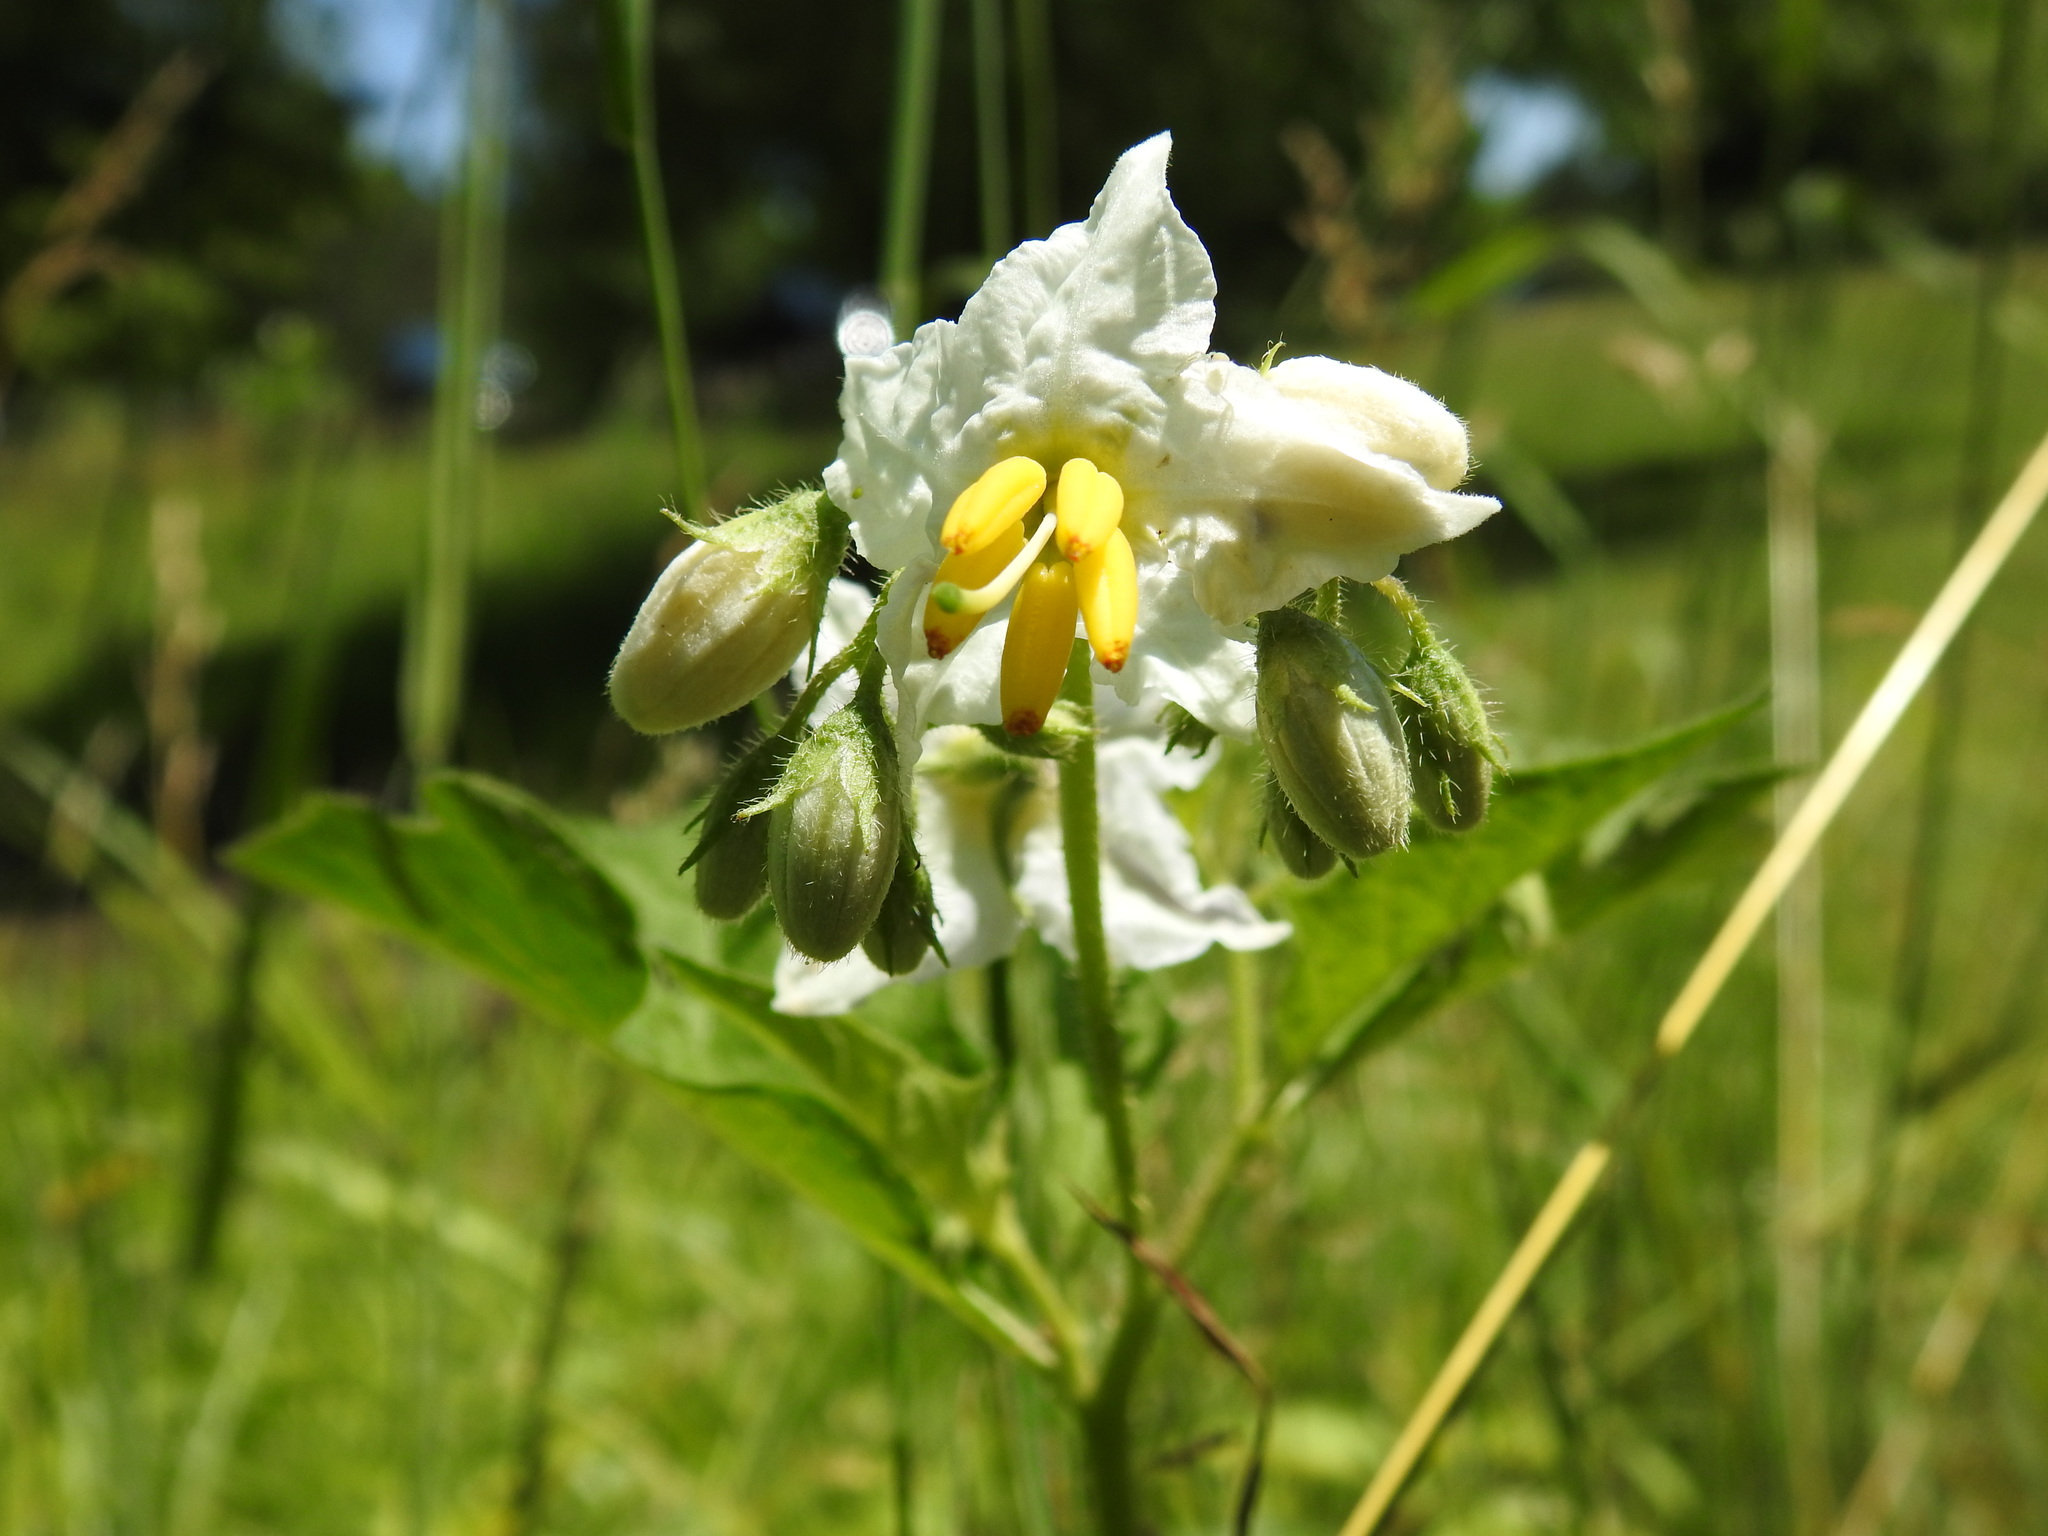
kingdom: Plantae
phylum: Tracheophyta
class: Magnoliopsida
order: Solanales
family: Solanaceae
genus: Solanum
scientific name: Solanum carolinense
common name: Horse-nettle
